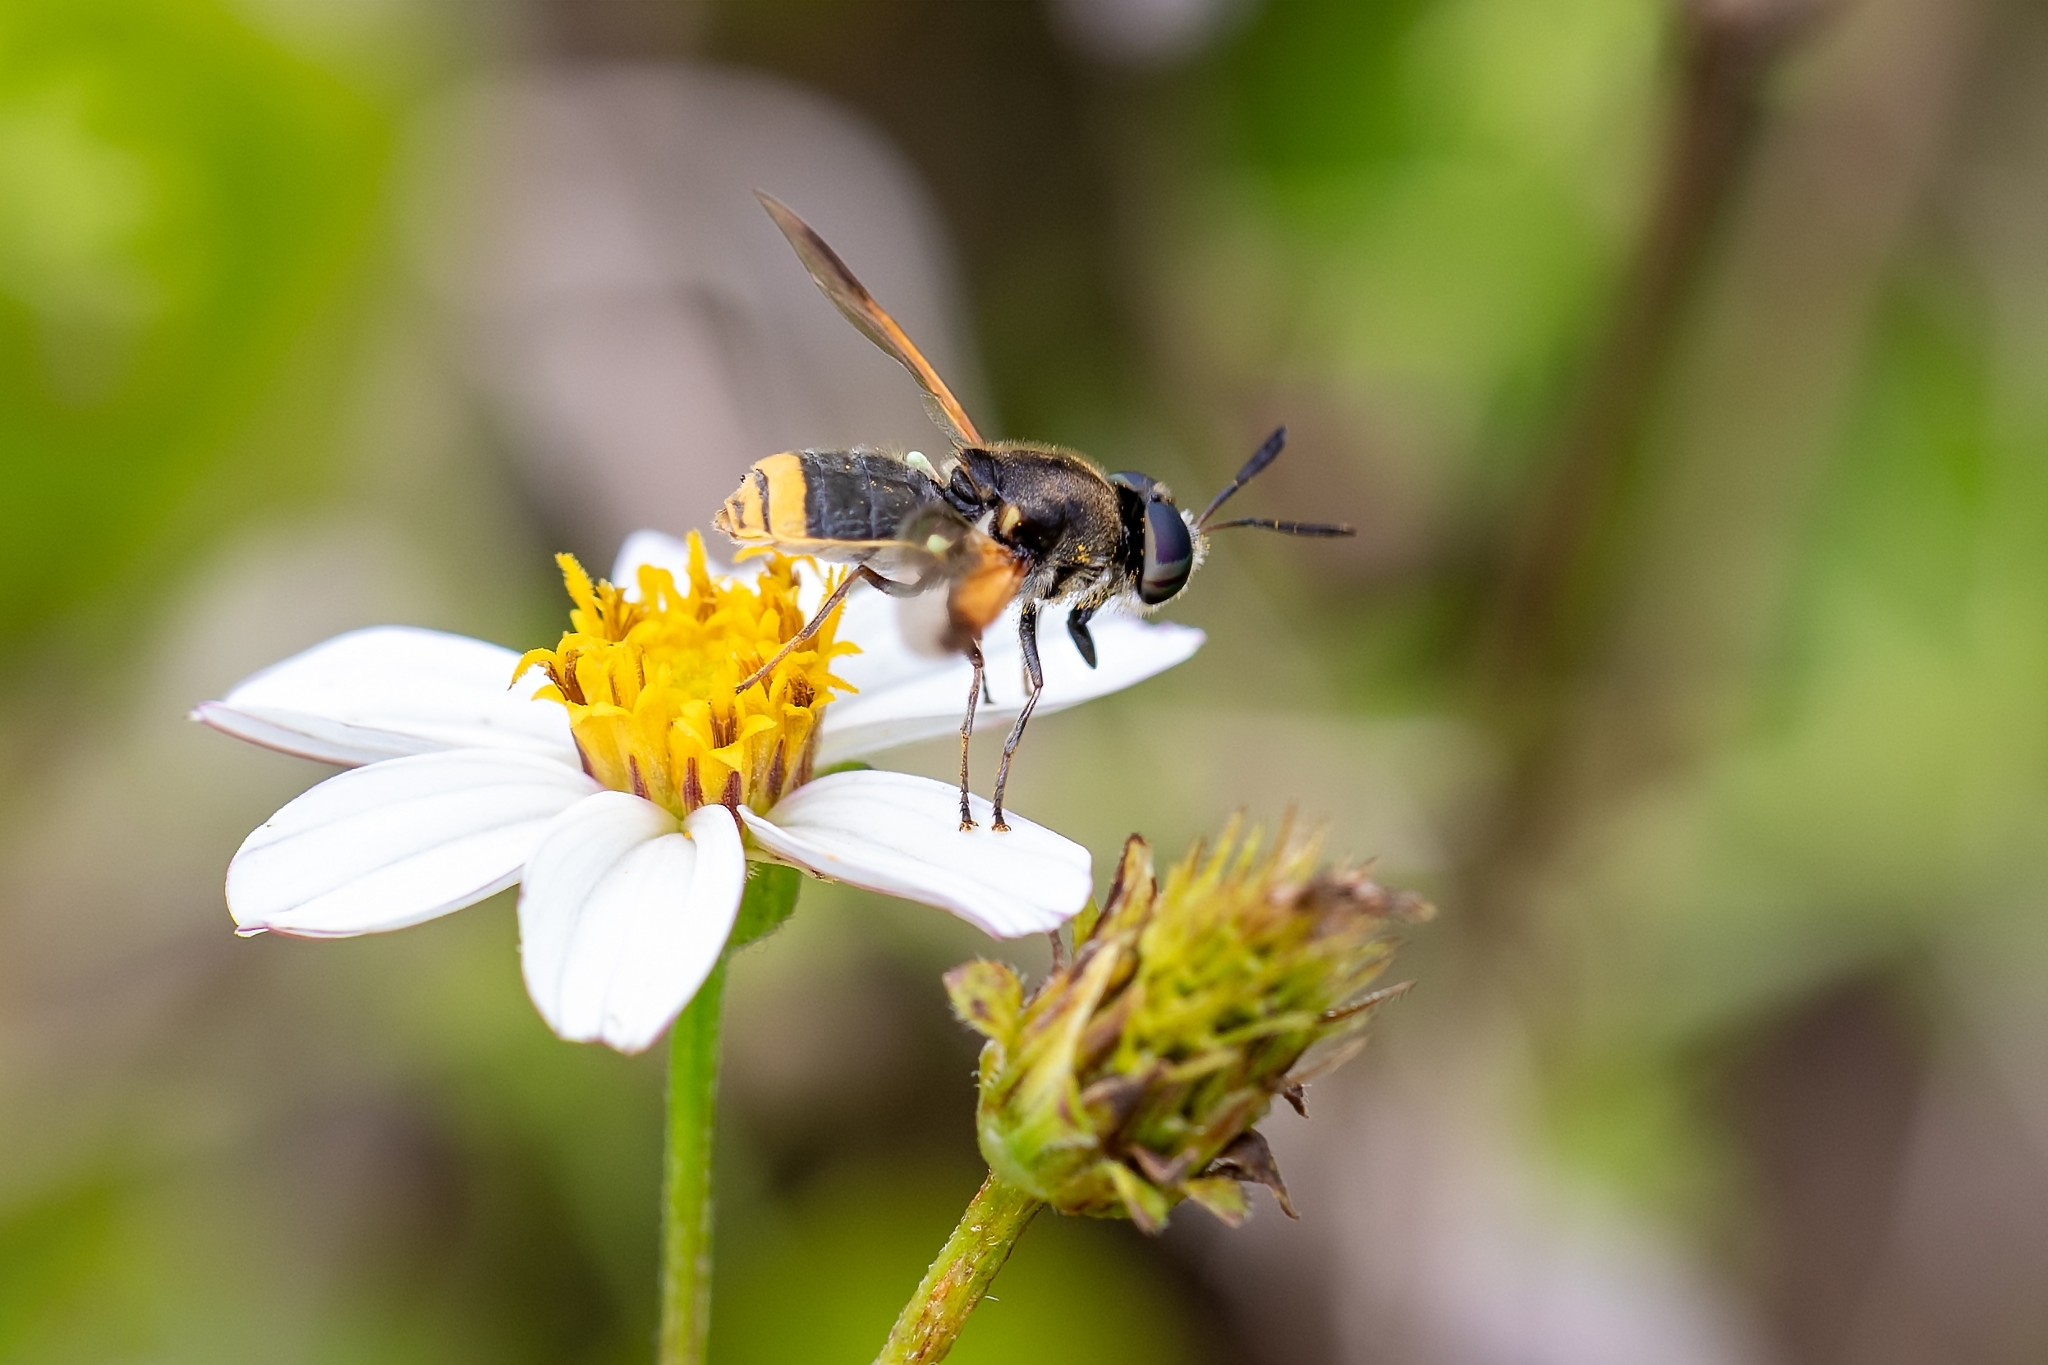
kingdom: Animalia
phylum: Arthropoda
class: Insecta
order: Diptera
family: Stratiomyidae
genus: Hoplitimyia
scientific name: Hoplitimyia mutabilis
